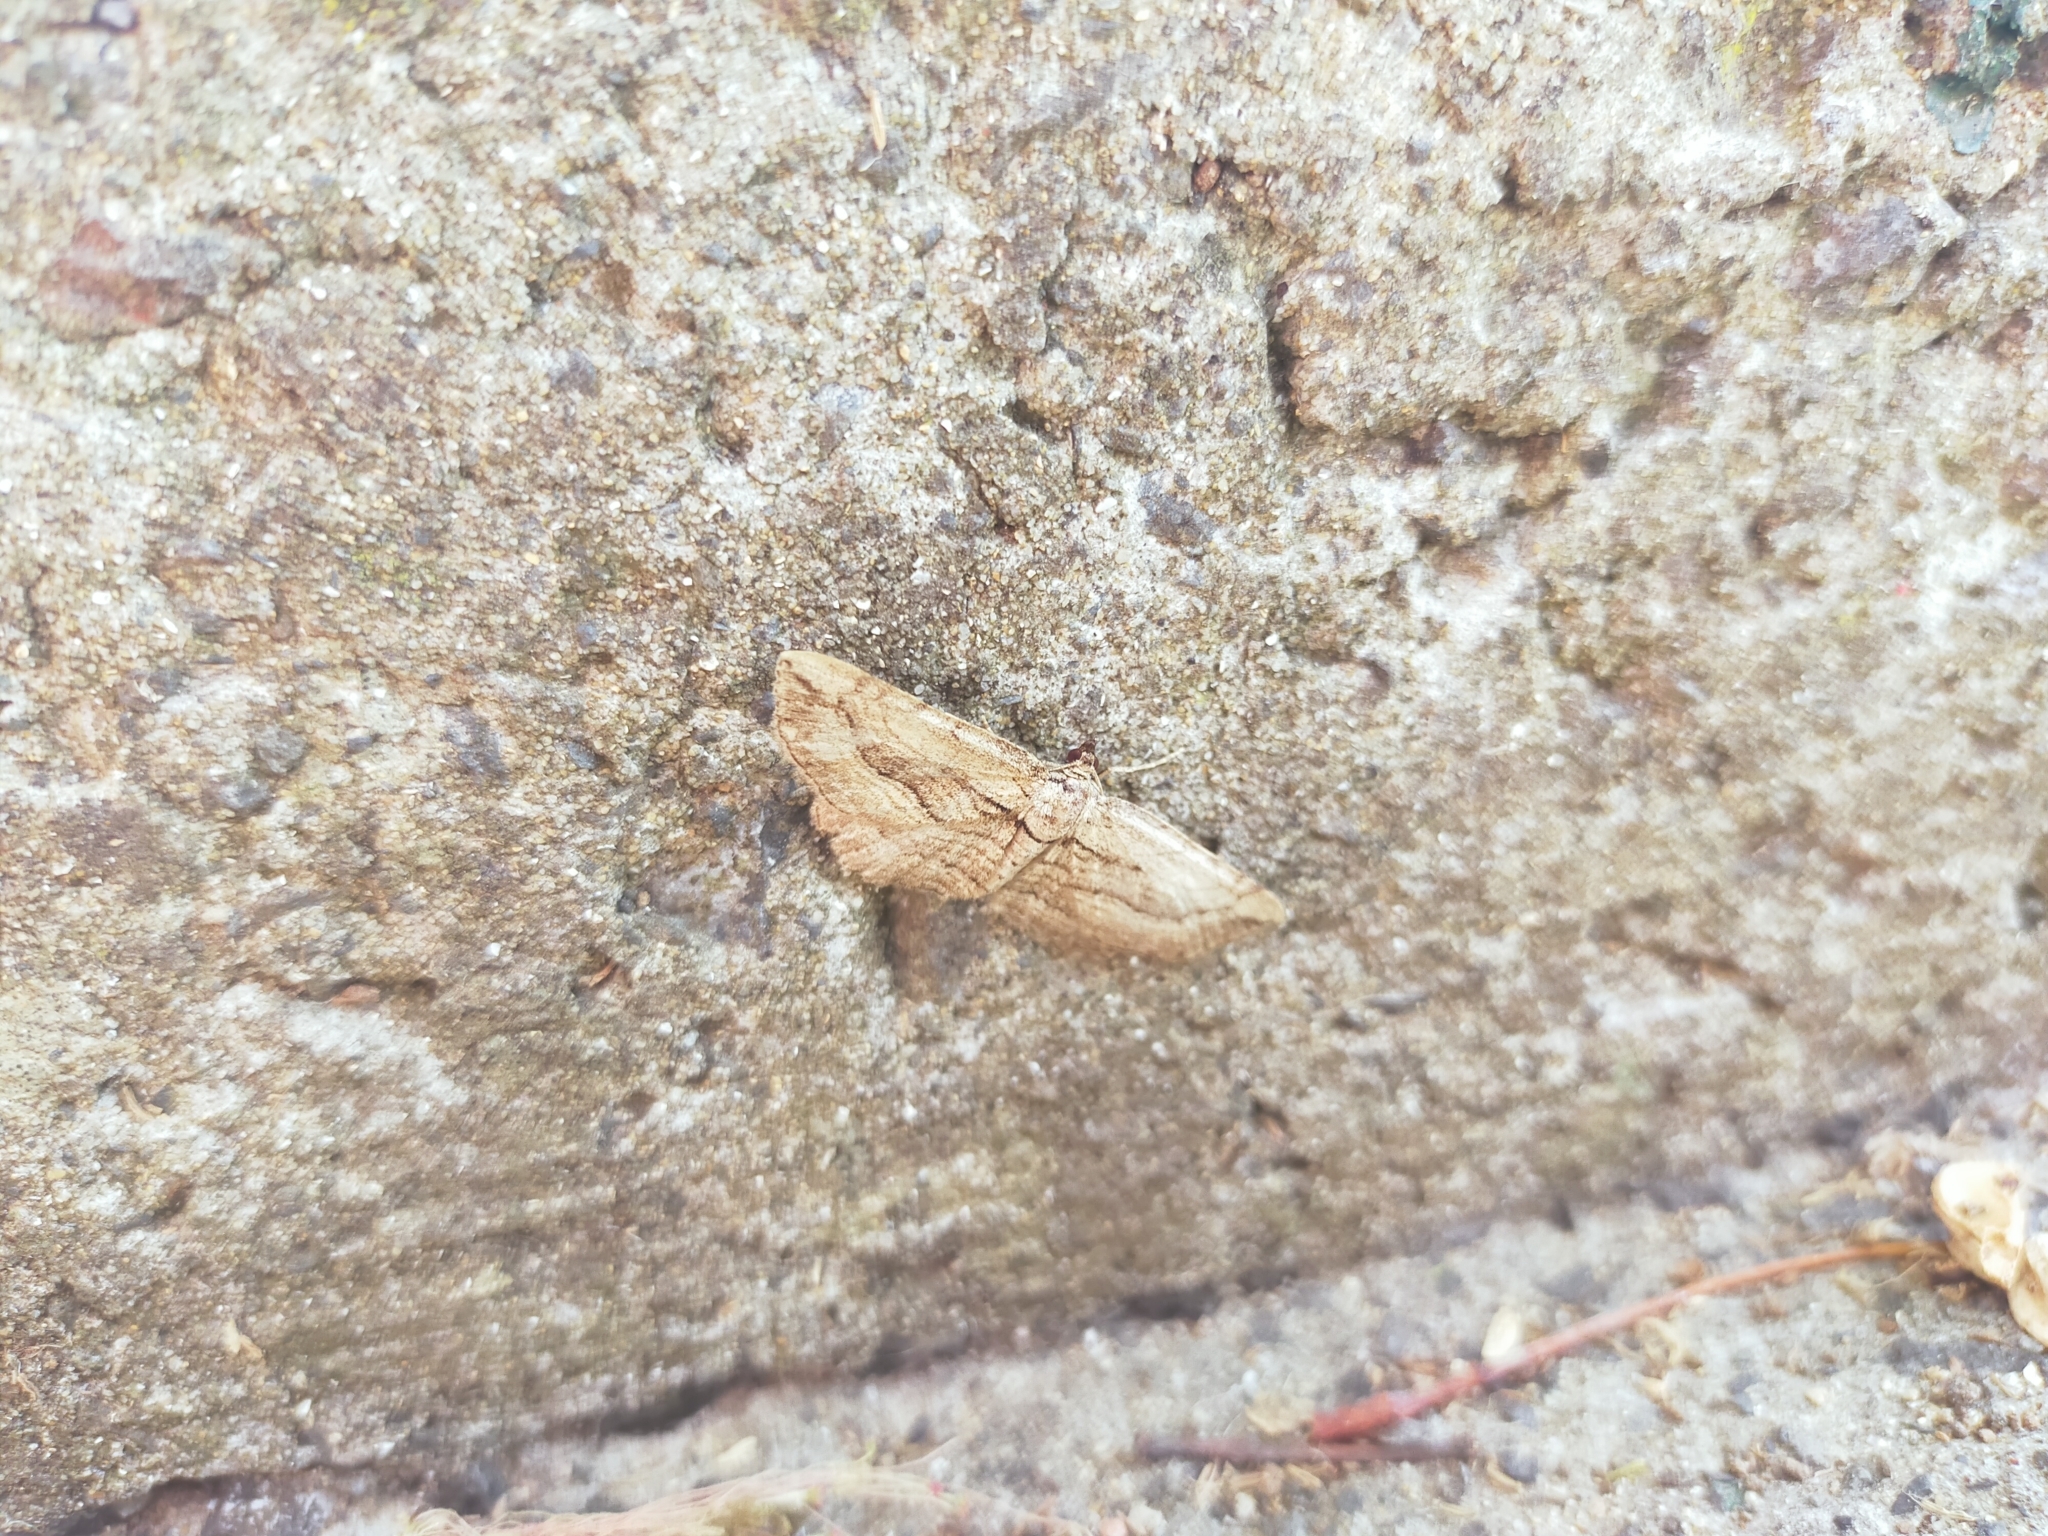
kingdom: Animalia
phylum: Arthropoda
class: Insecta
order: Lepidoptera
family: Geometridae
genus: Horisme
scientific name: Horisme corticata
